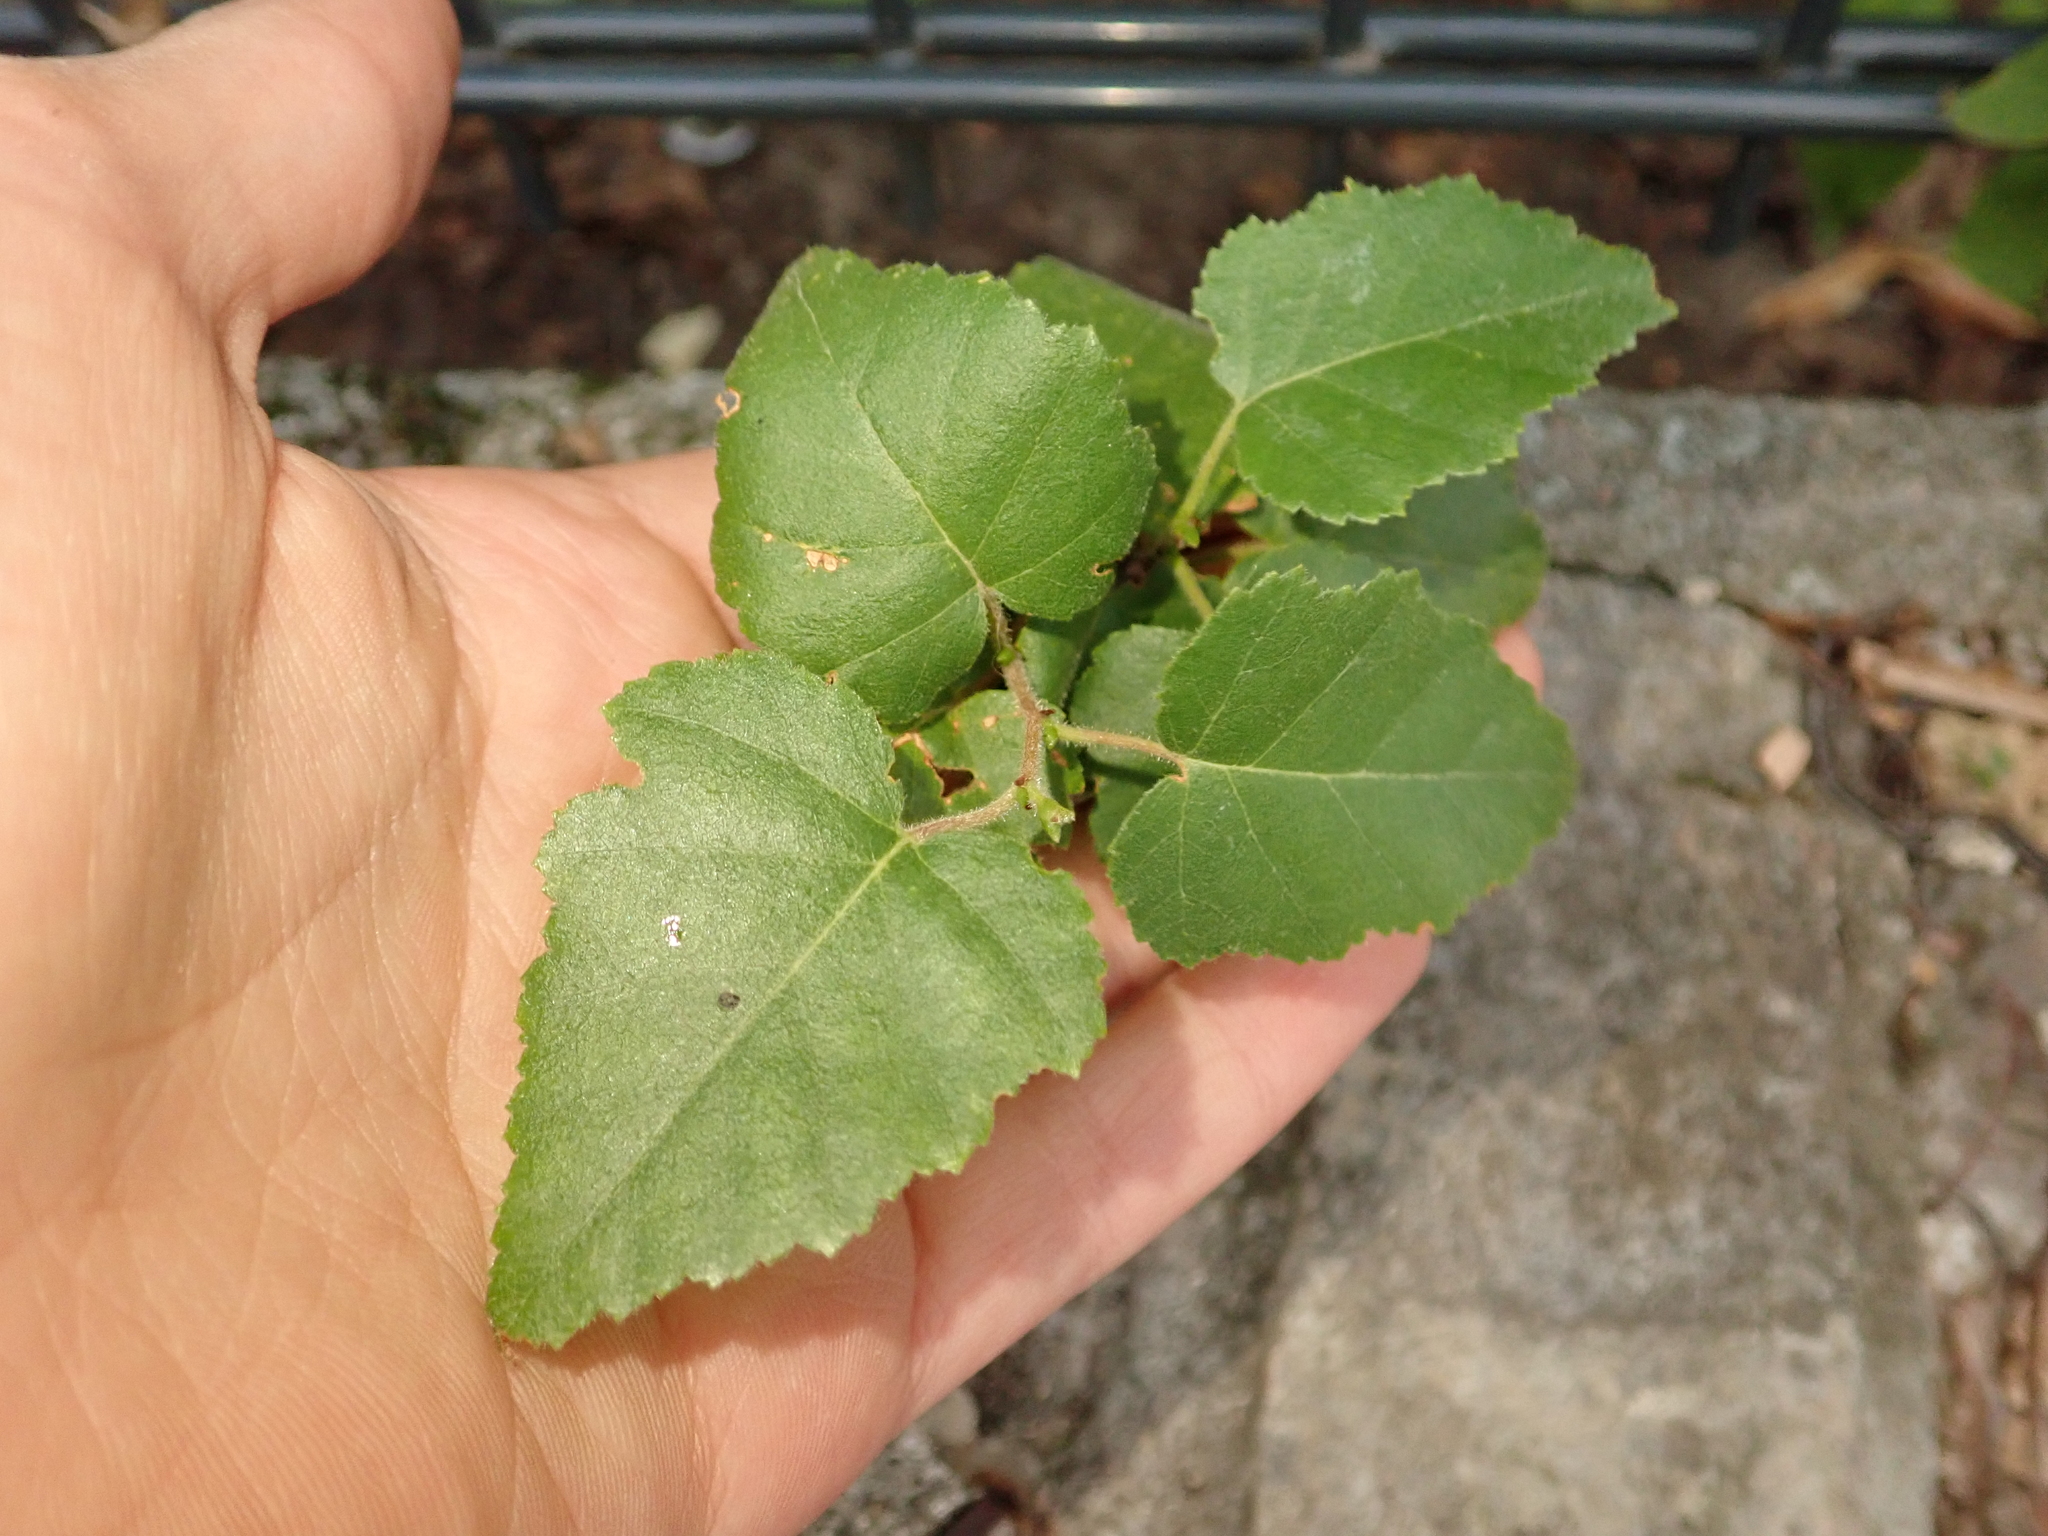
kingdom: Plantae
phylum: Tracheophyta
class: Magnoliopsida
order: Fagales
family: Betulaceae
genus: Betula
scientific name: Betula pendula
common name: Silver birch
